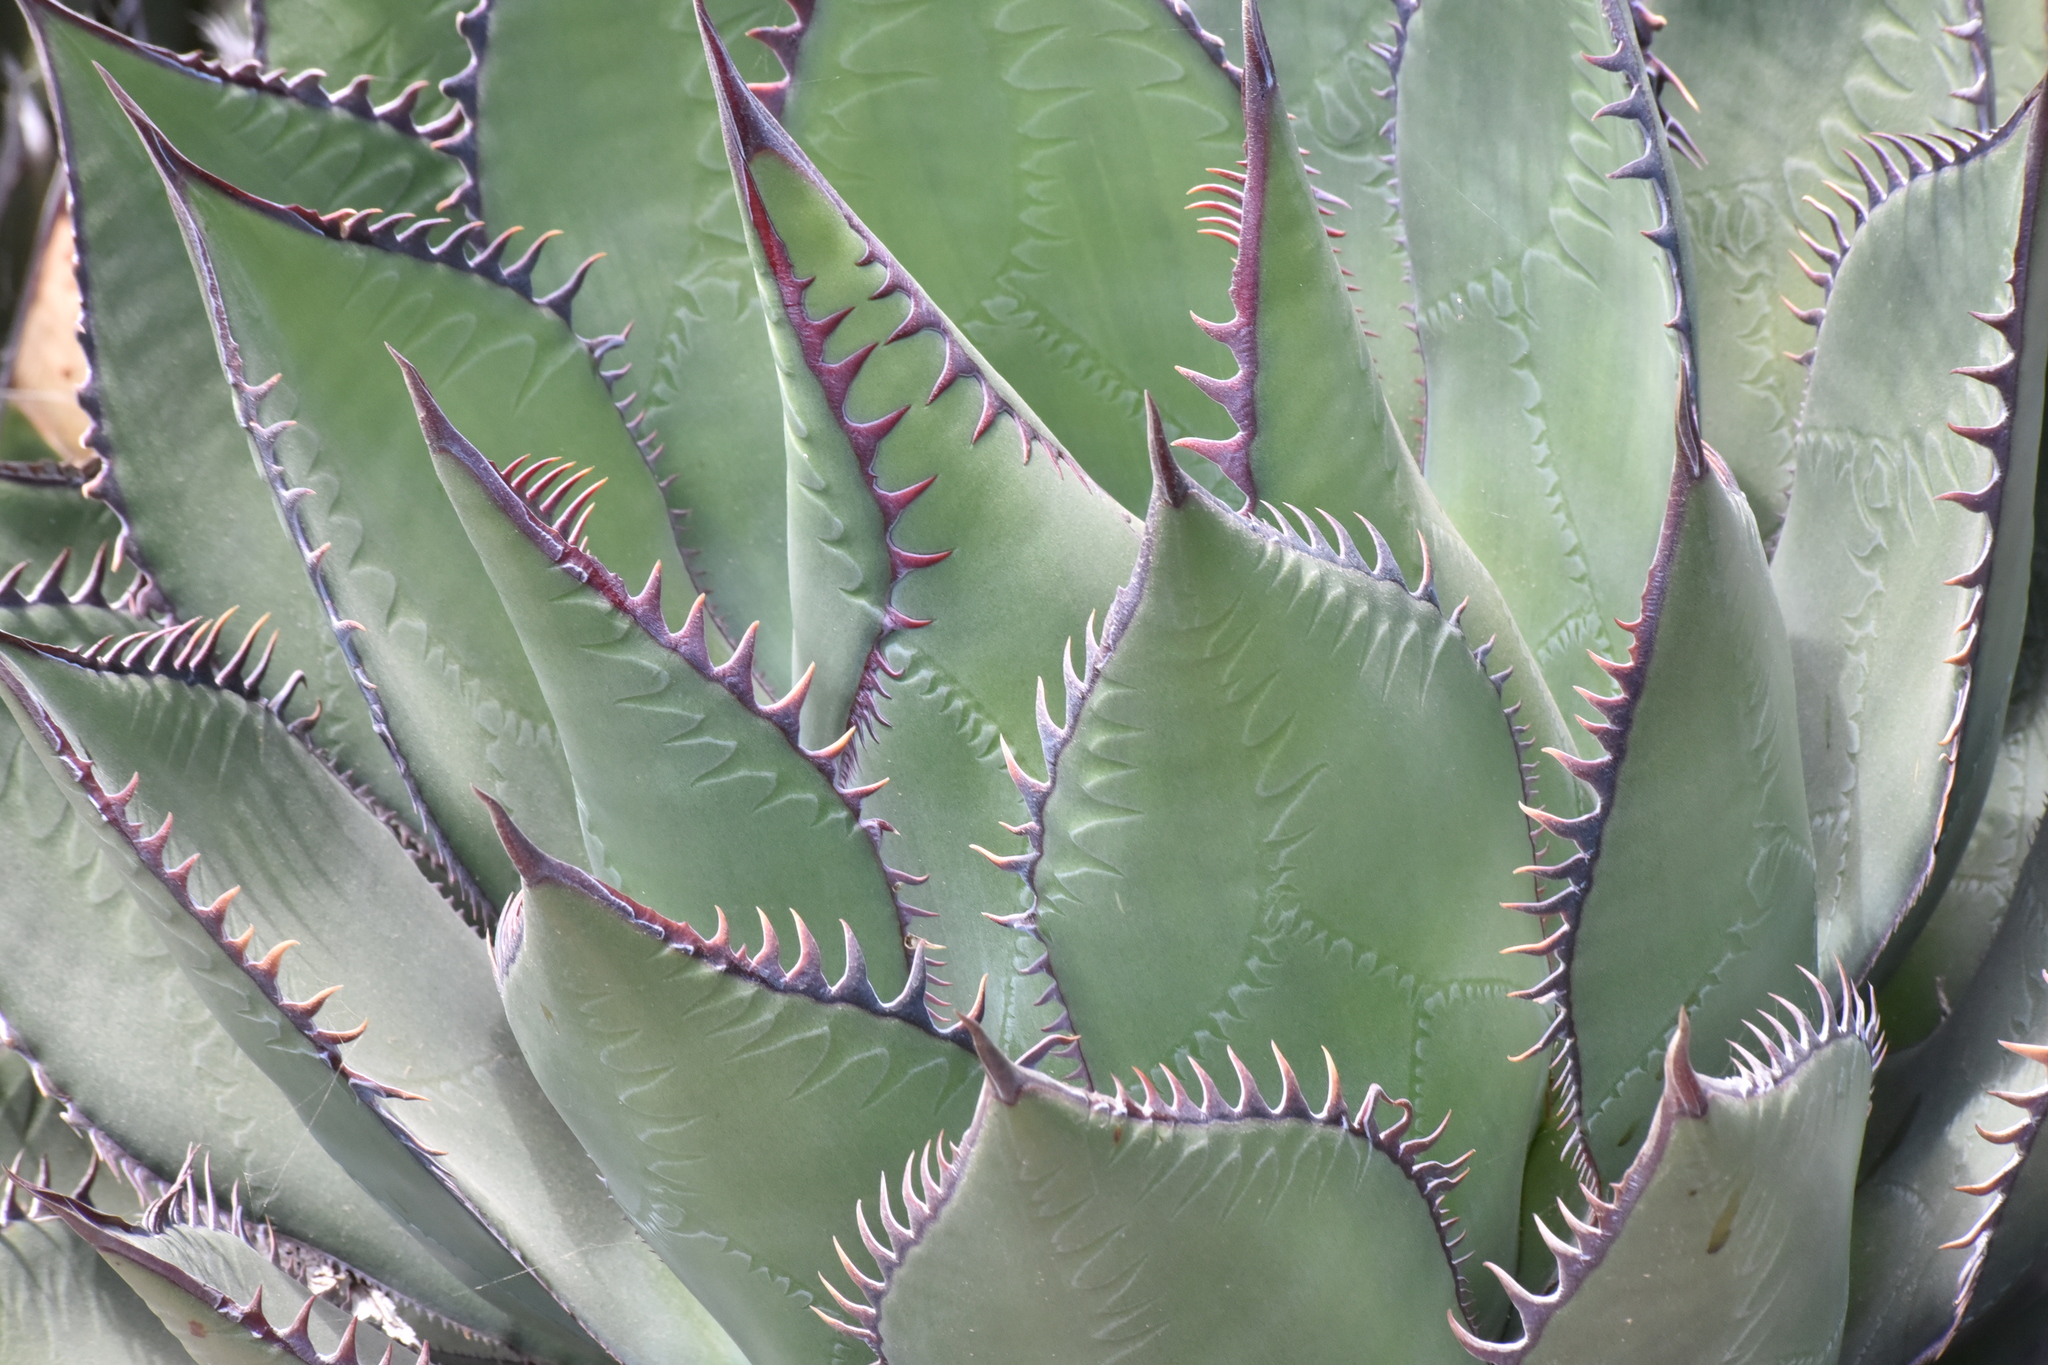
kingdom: Plantae
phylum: Tracheophyta
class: Liliopsida
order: Asparagales
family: Asparagaceae
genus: Agave
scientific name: Agave shawii
